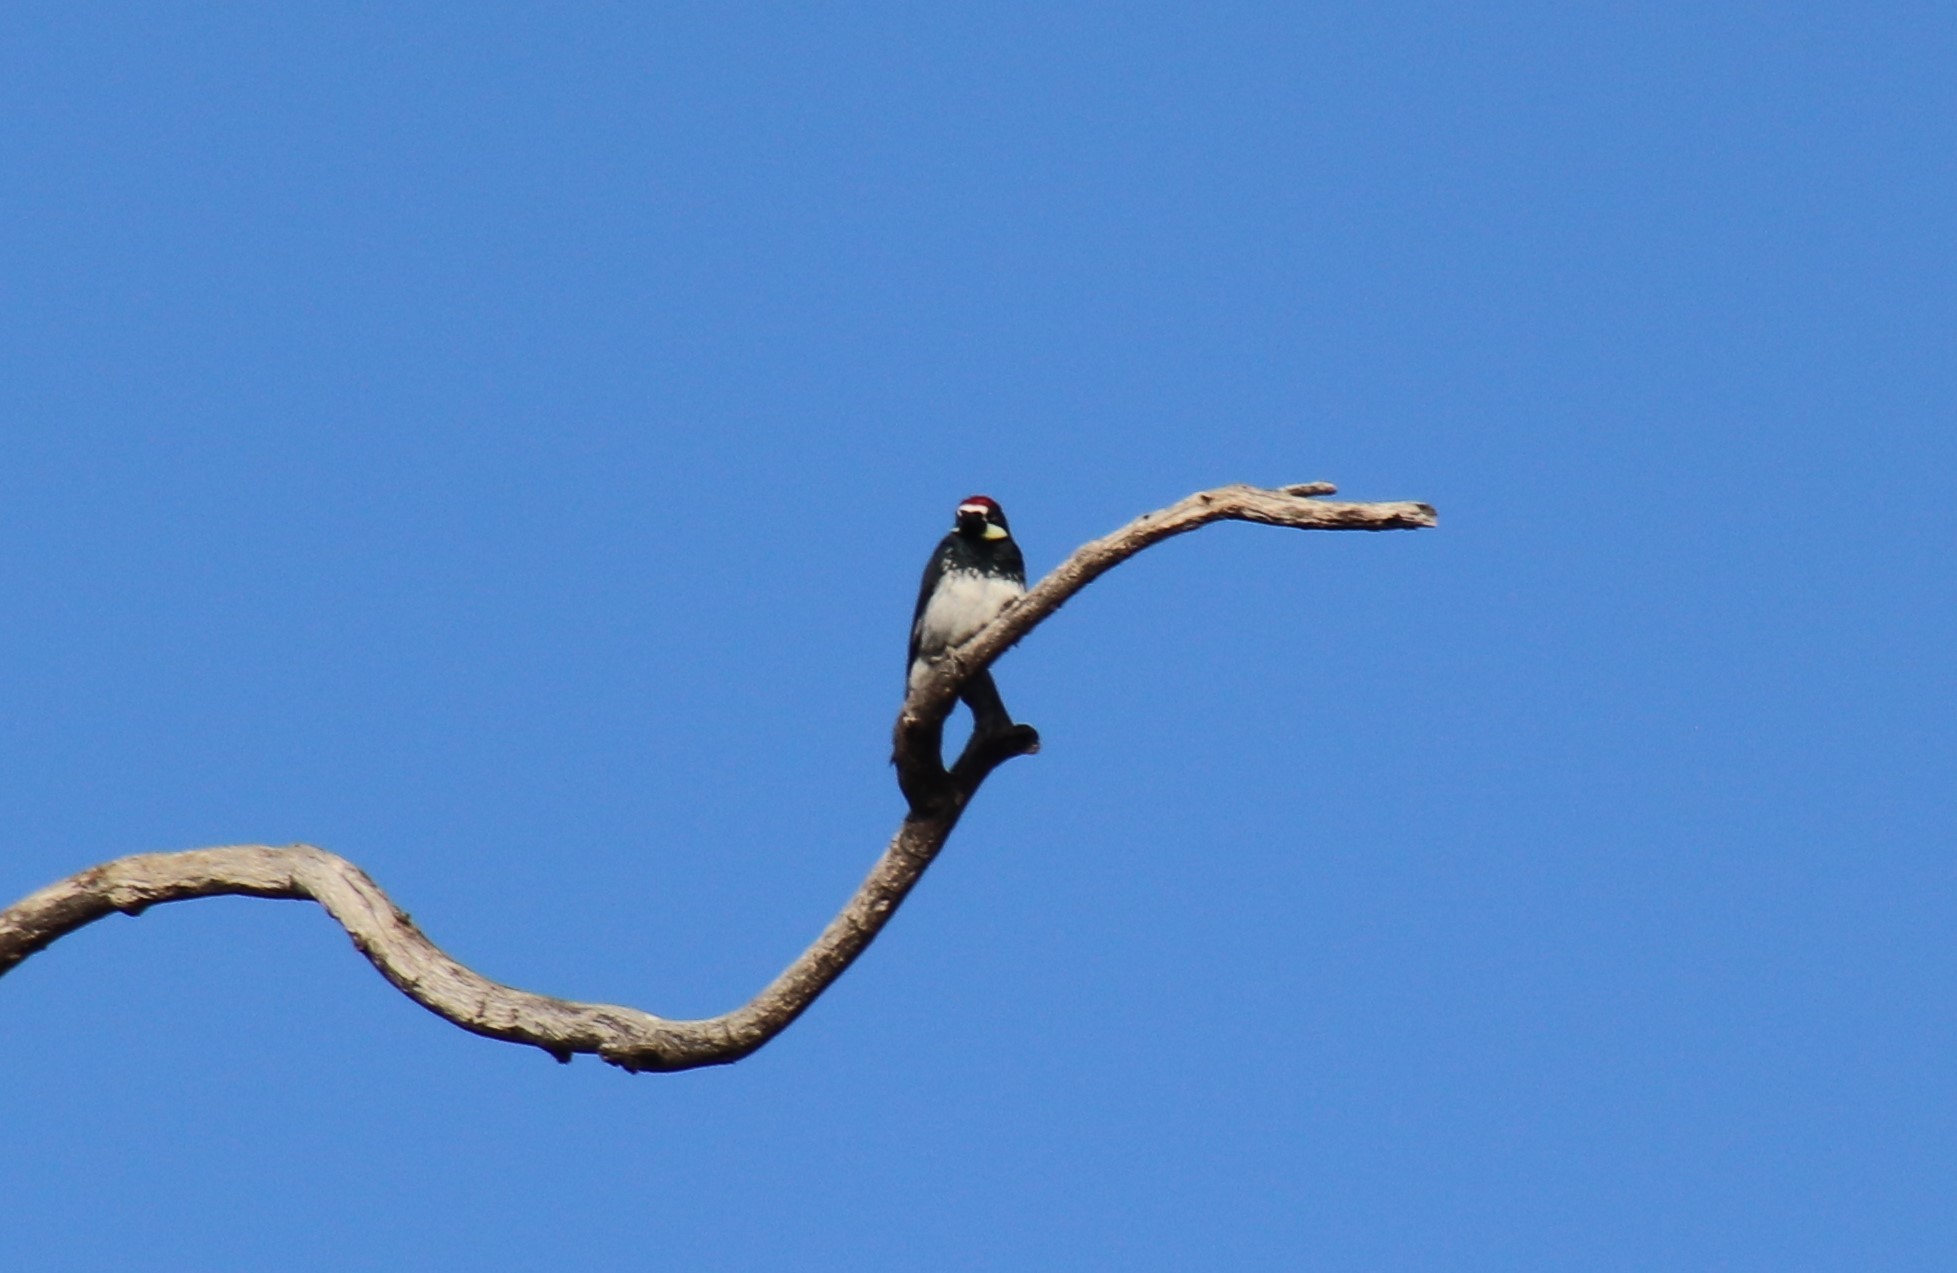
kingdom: Animalia
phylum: Chordata
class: Aves
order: Piciformes
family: Picidae
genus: Melanerpes
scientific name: Melanerpes formicivorus
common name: Acorn woodpecker
